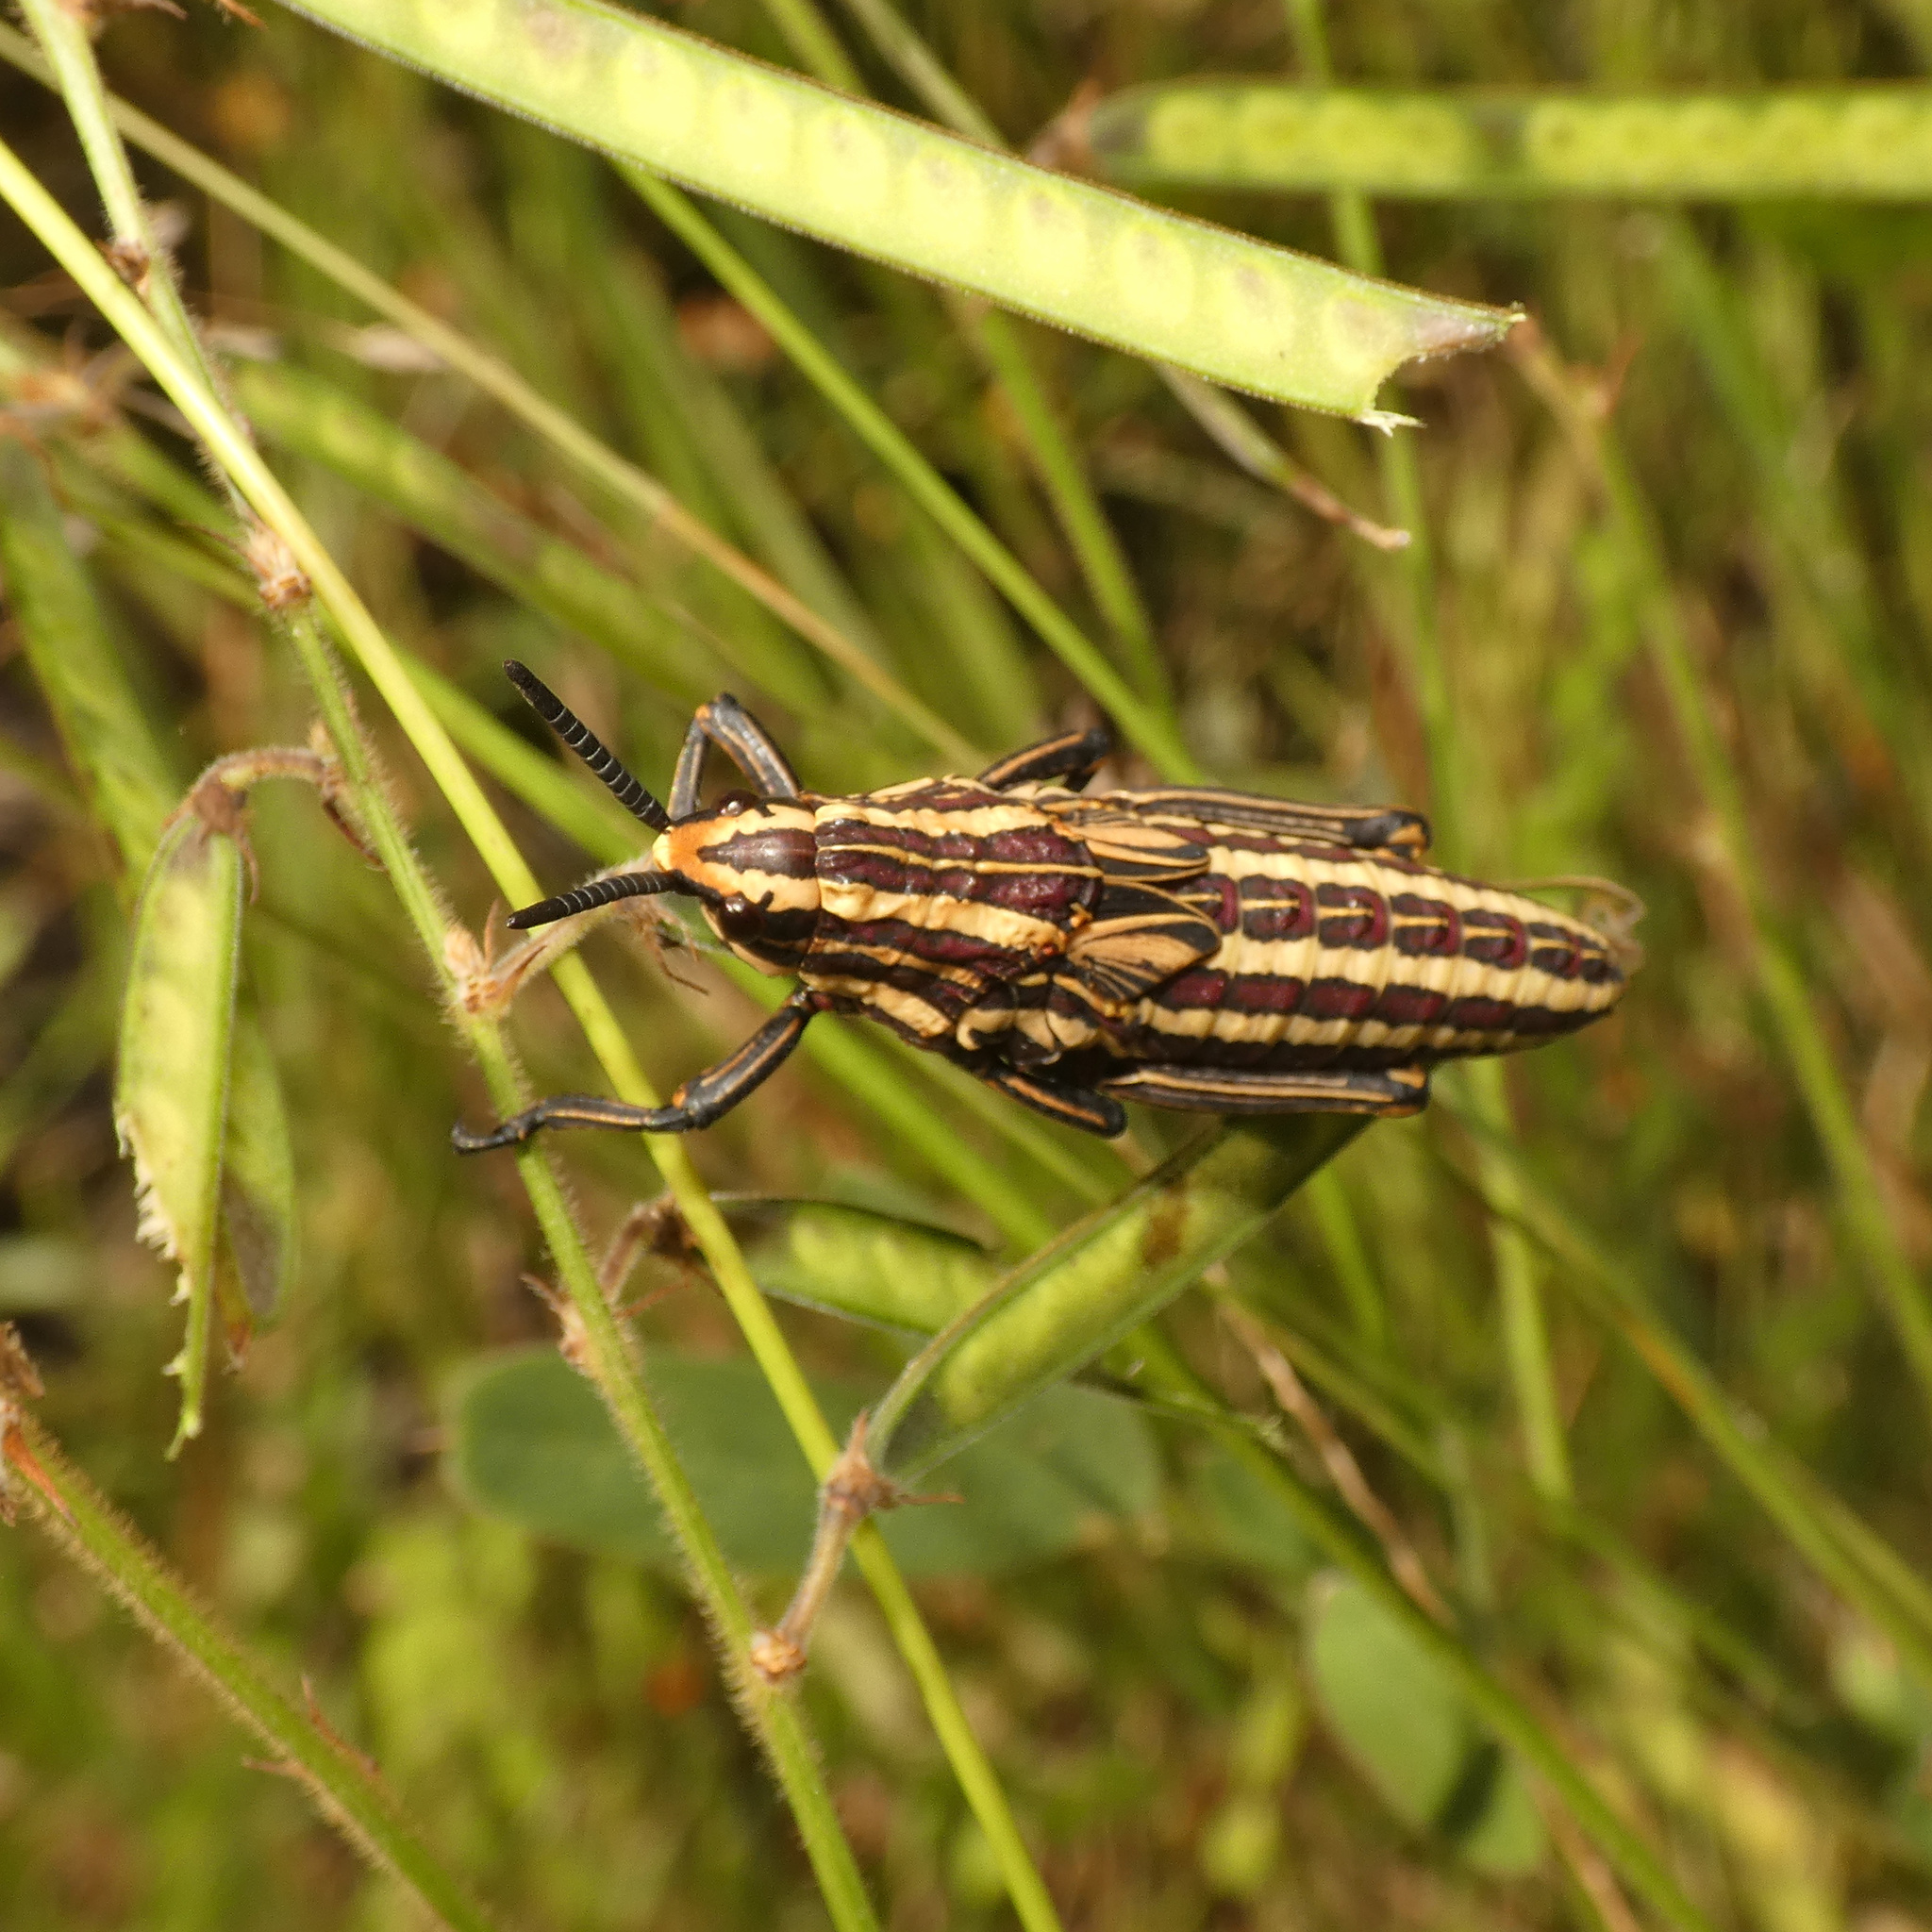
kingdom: Animalia
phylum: Arthropoda
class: Insecta
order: Orthoptera
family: Pyrgomorphidae
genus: Dictyophorus
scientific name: Dictyophorus griseus
